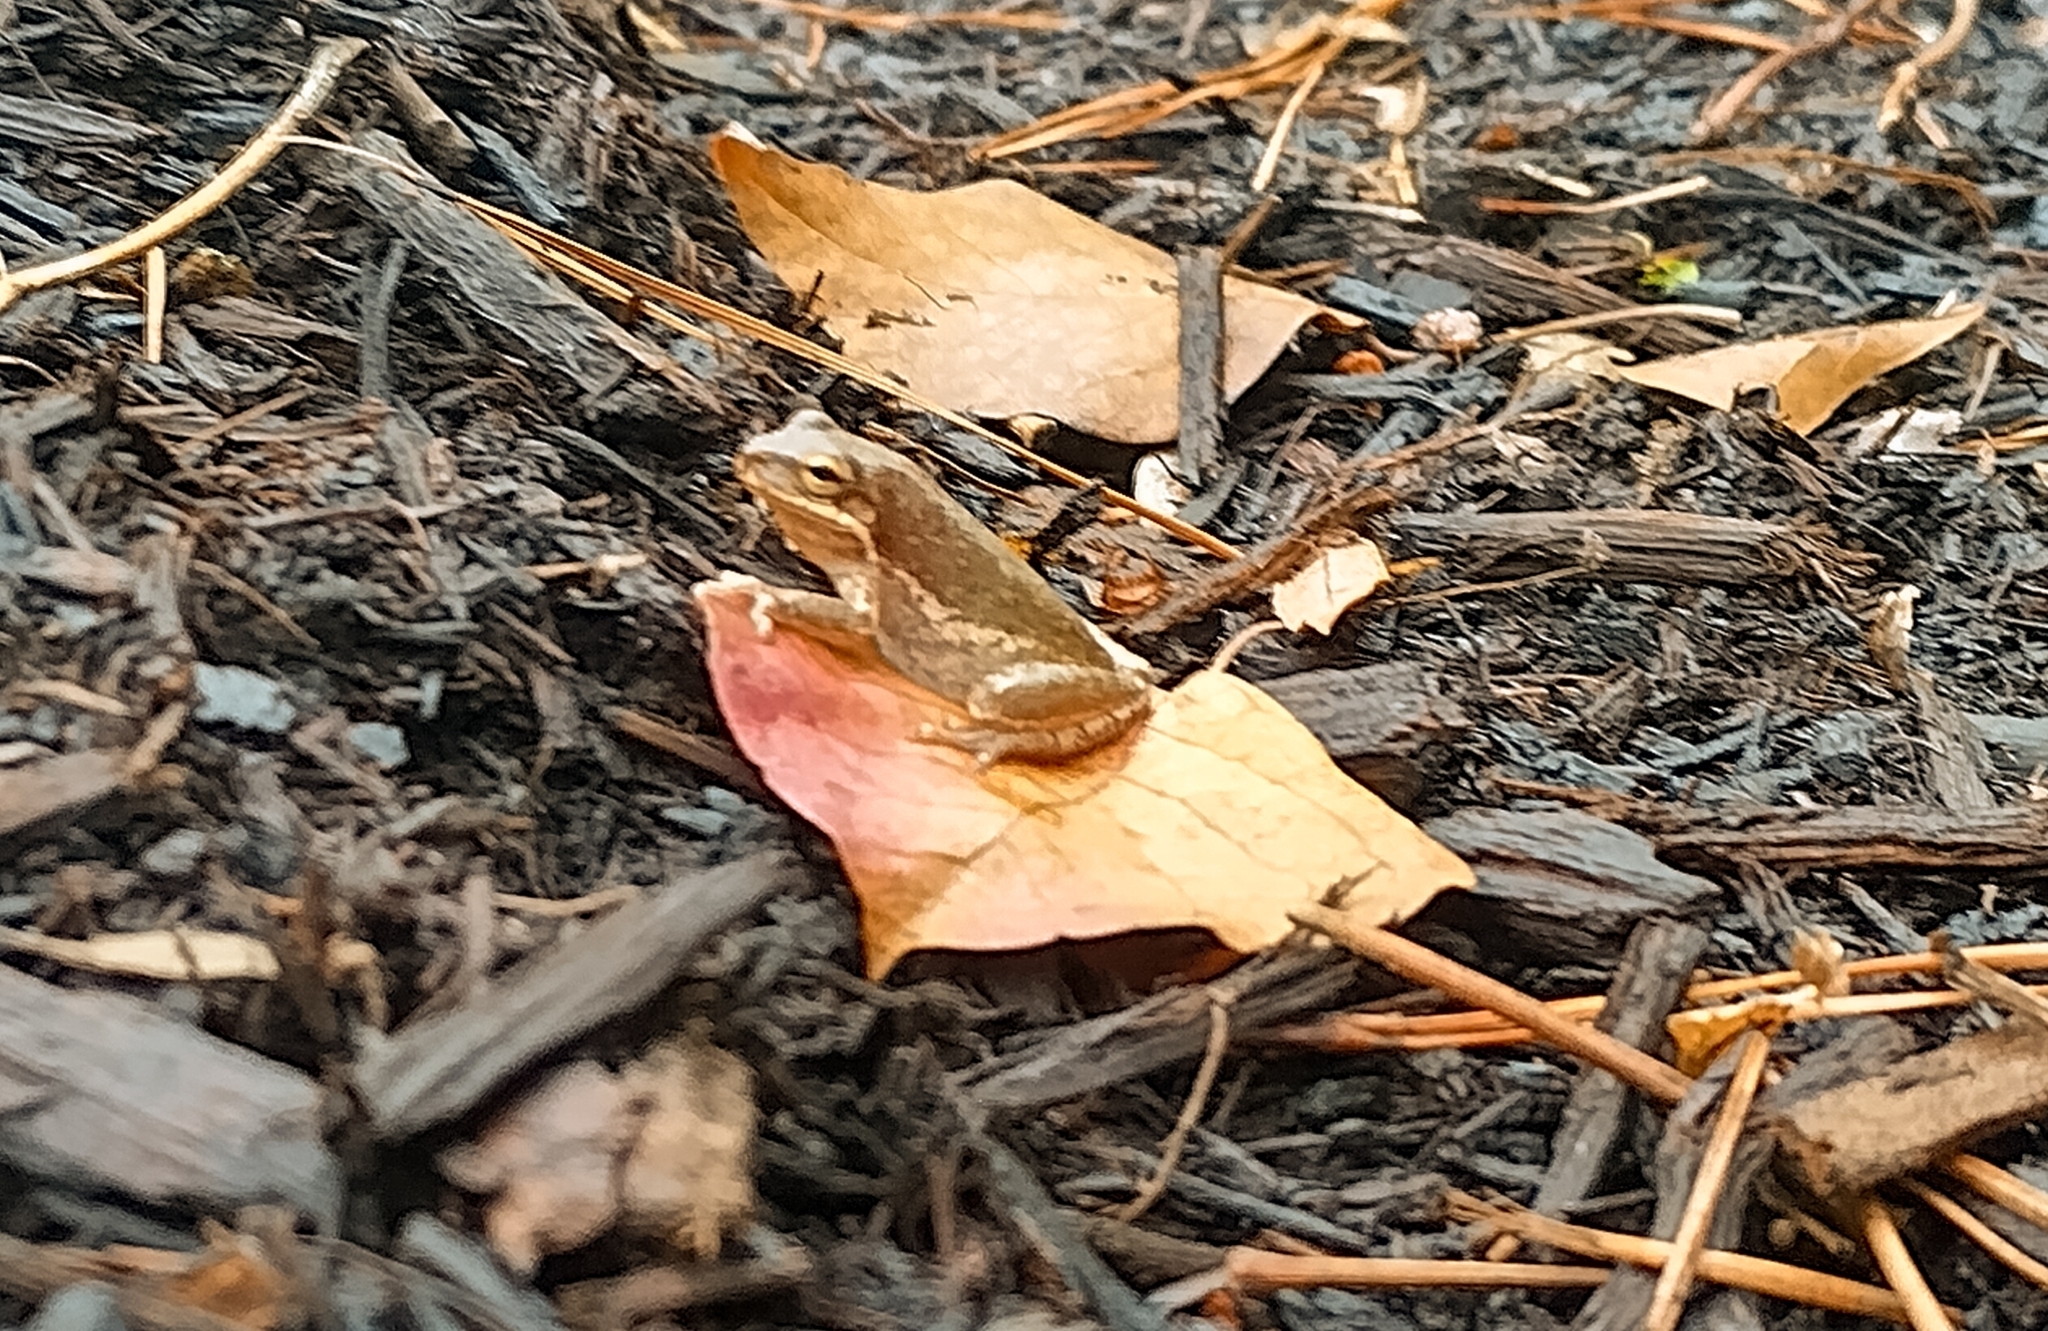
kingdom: Animalia
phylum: Chordata
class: Amphibia
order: Anura
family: Hylidae
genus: Dryophytes
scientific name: Dryophytes squirellus
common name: Squirrel treefrog
